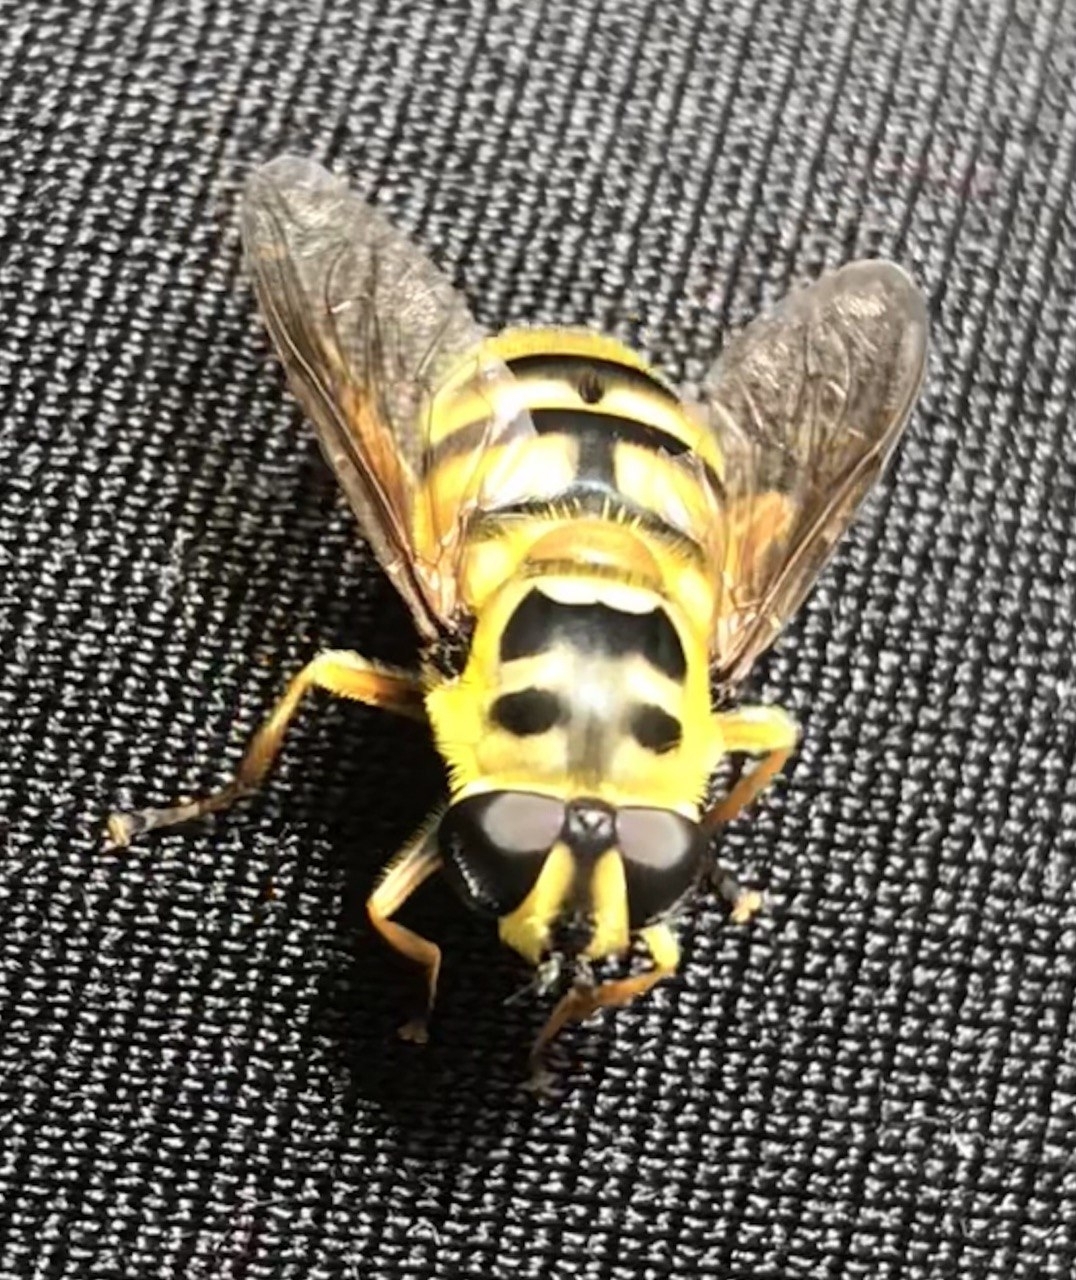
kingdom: Animalia
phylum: Arthropoda
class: Insecta
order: Diptera
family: Syrphidae
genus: Myathropa
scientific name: Myathropa florea
